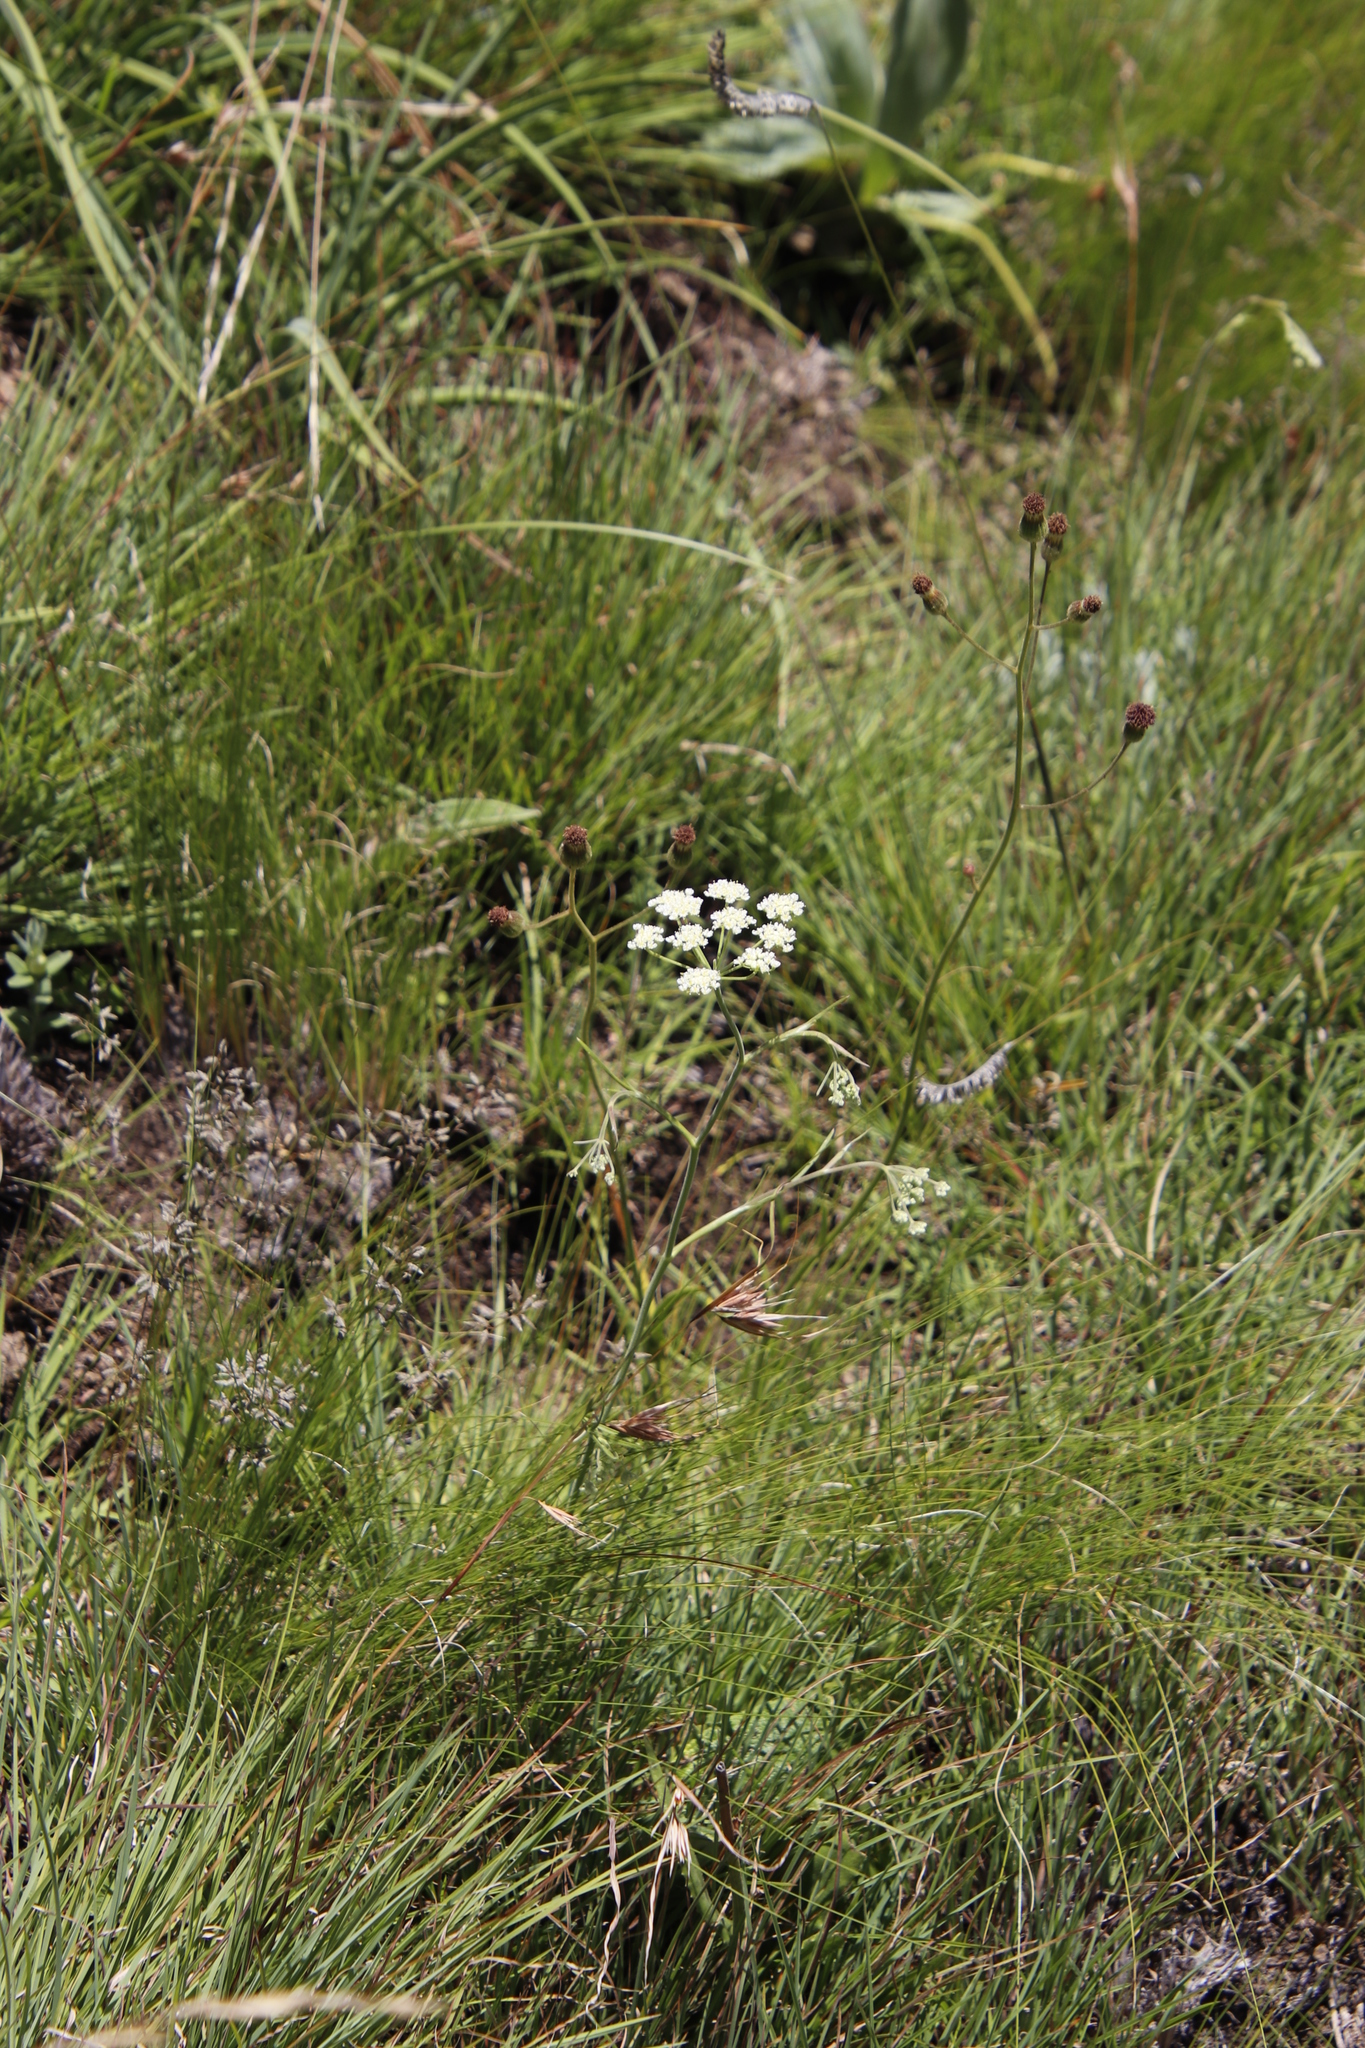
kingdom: Plantae
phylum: Tracheophyta
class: Magnoliopsida
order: Apiales
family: Apiaceae
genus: Pimpinella
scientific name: Pimpinella caffra
